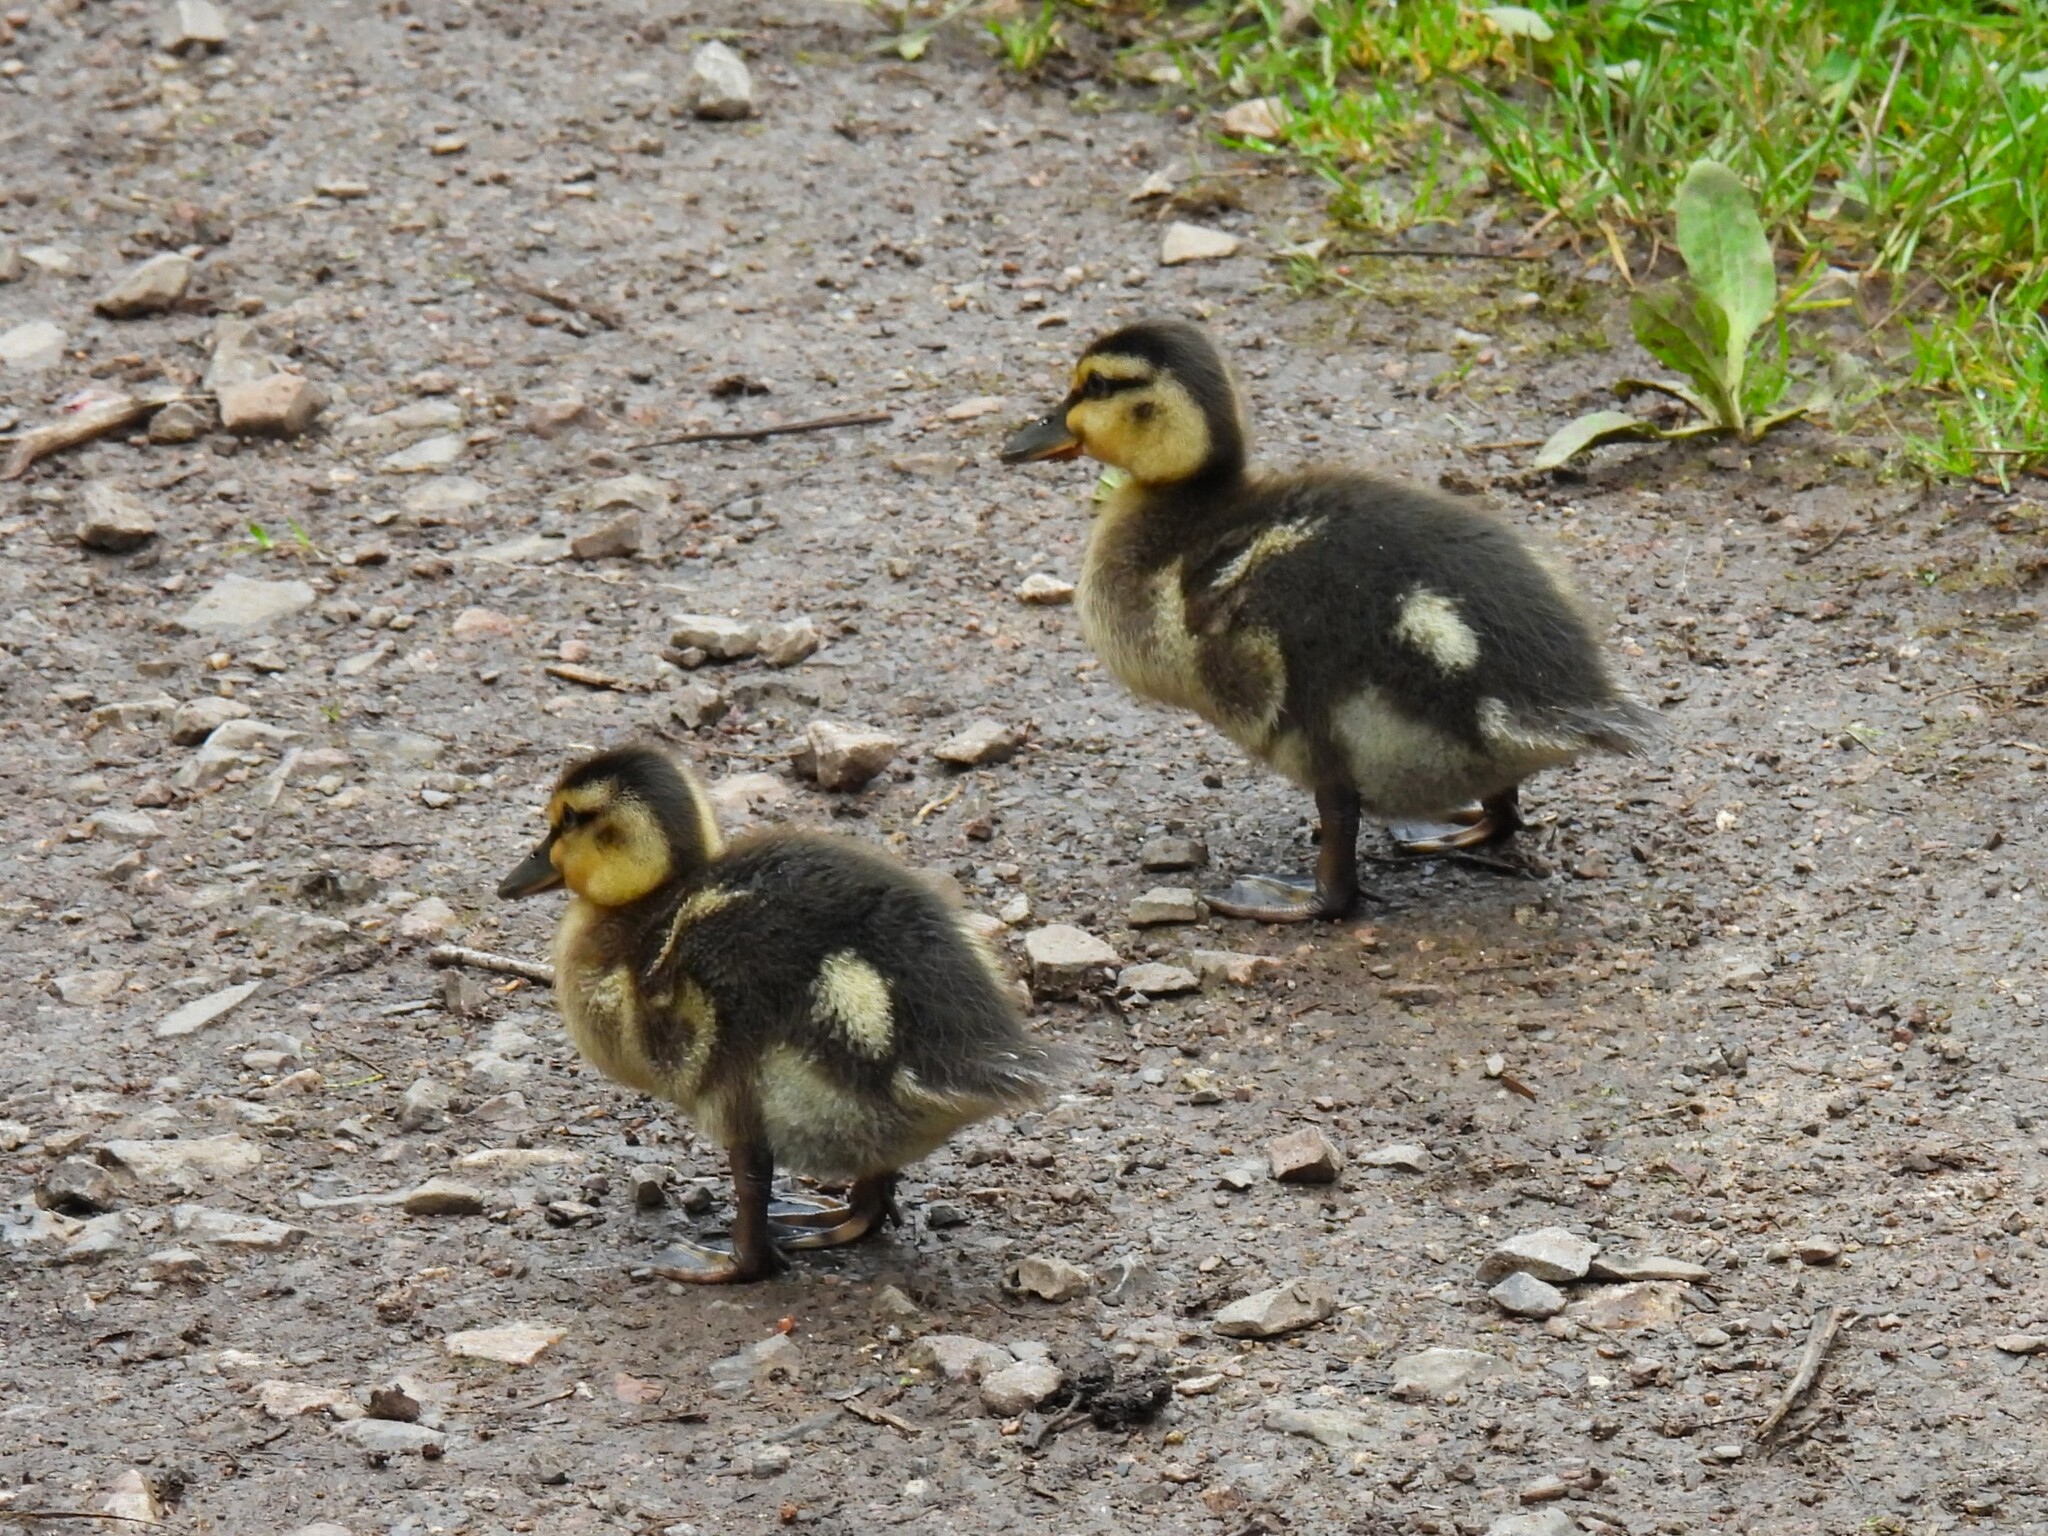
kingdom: Animalia
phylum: Chordata
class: Aves
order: Anseriformes
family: Anatidae
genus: Anas
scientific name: Anas platyrhynchos
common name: Mallard
